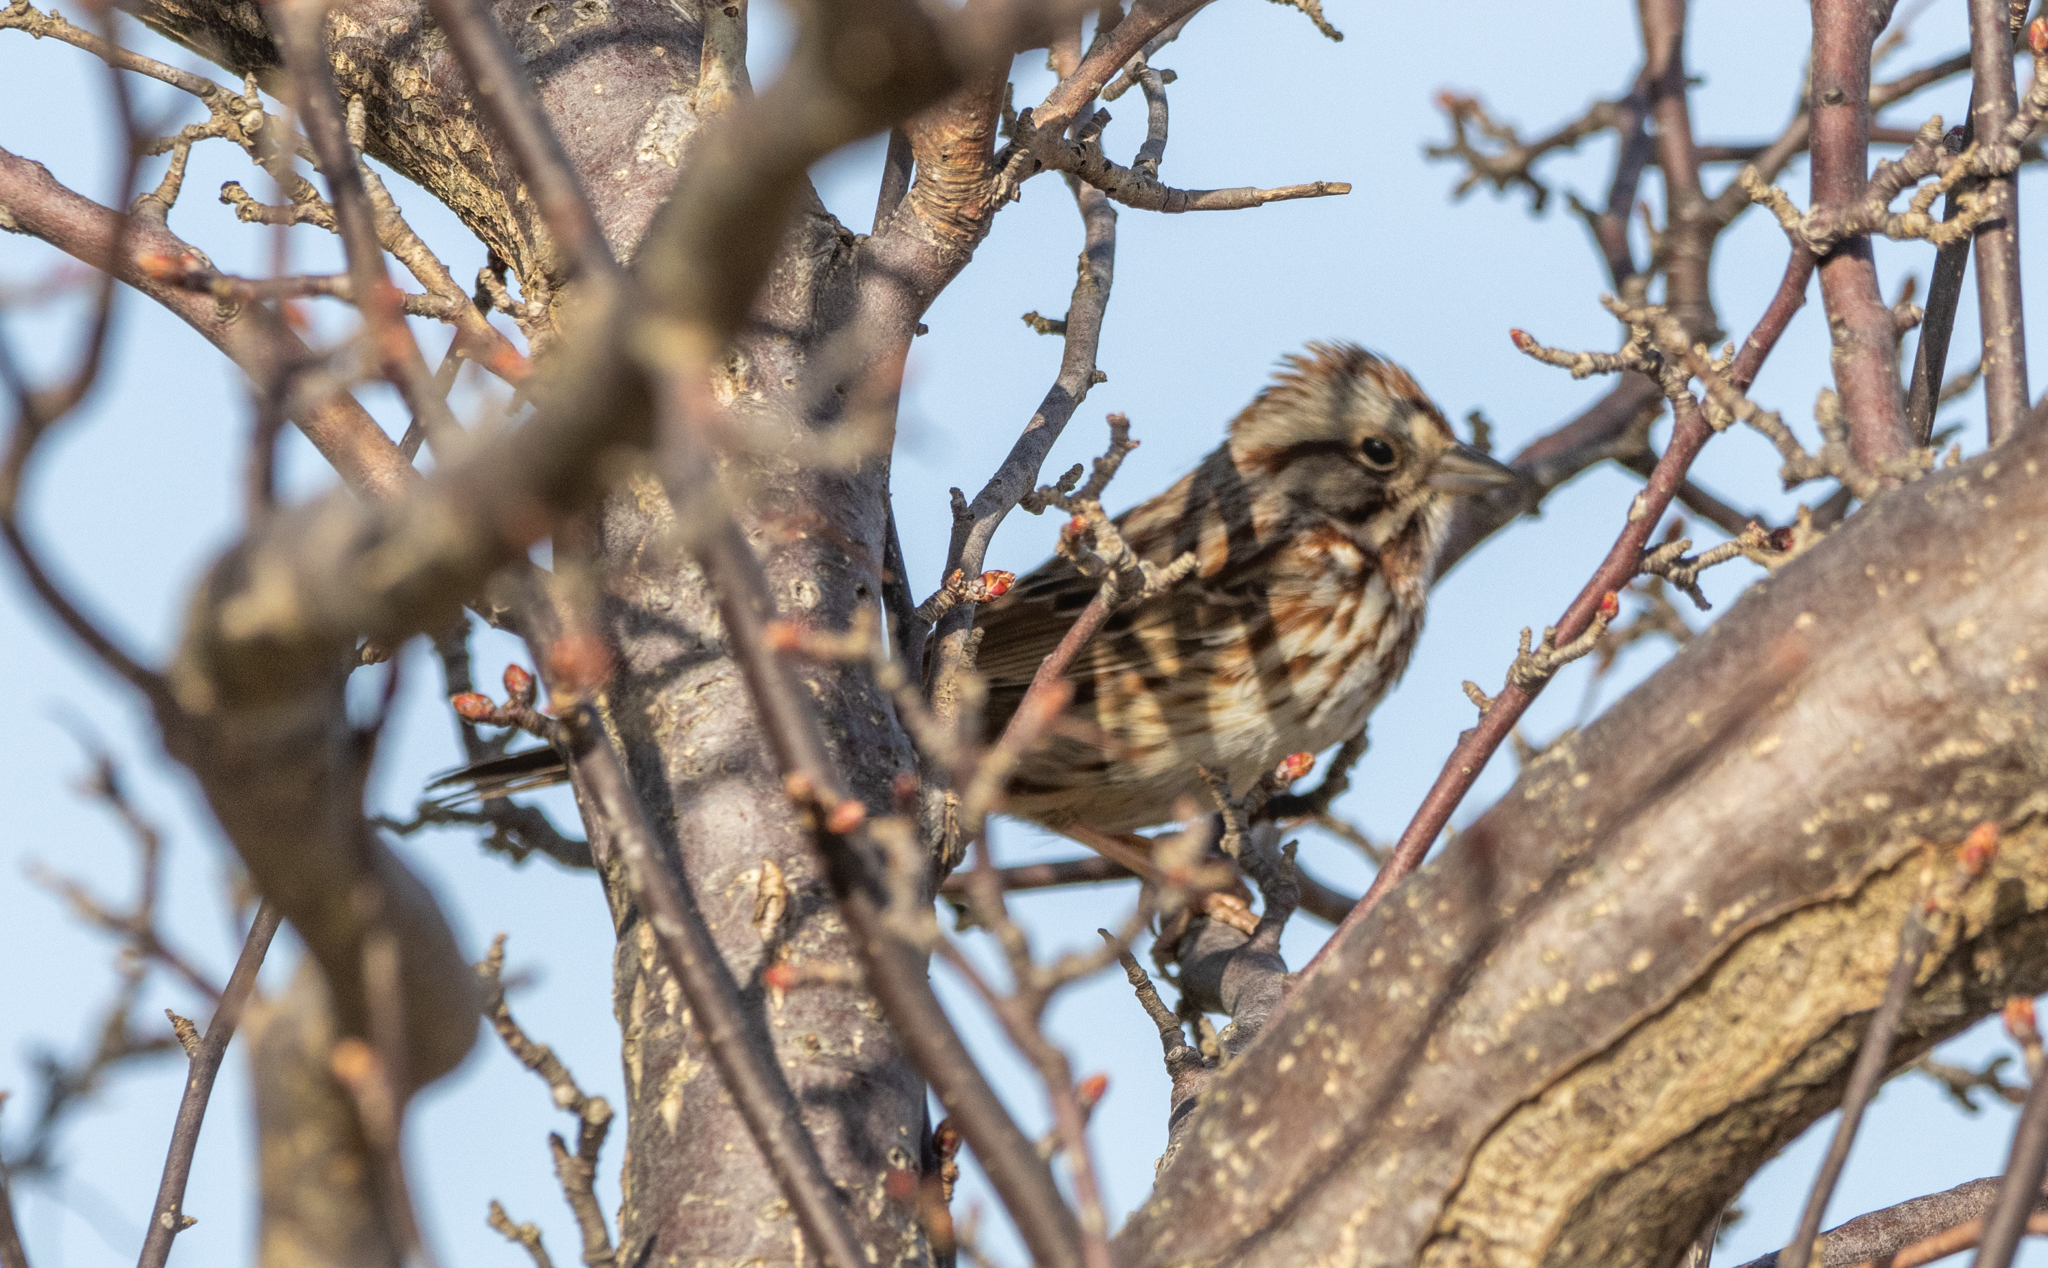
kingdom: Animalia
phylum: Chordata
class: Aves
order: Passeriformes
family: Passerellidae
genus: Melospiza
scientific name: Melospiza melodia
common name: Song sparrow
